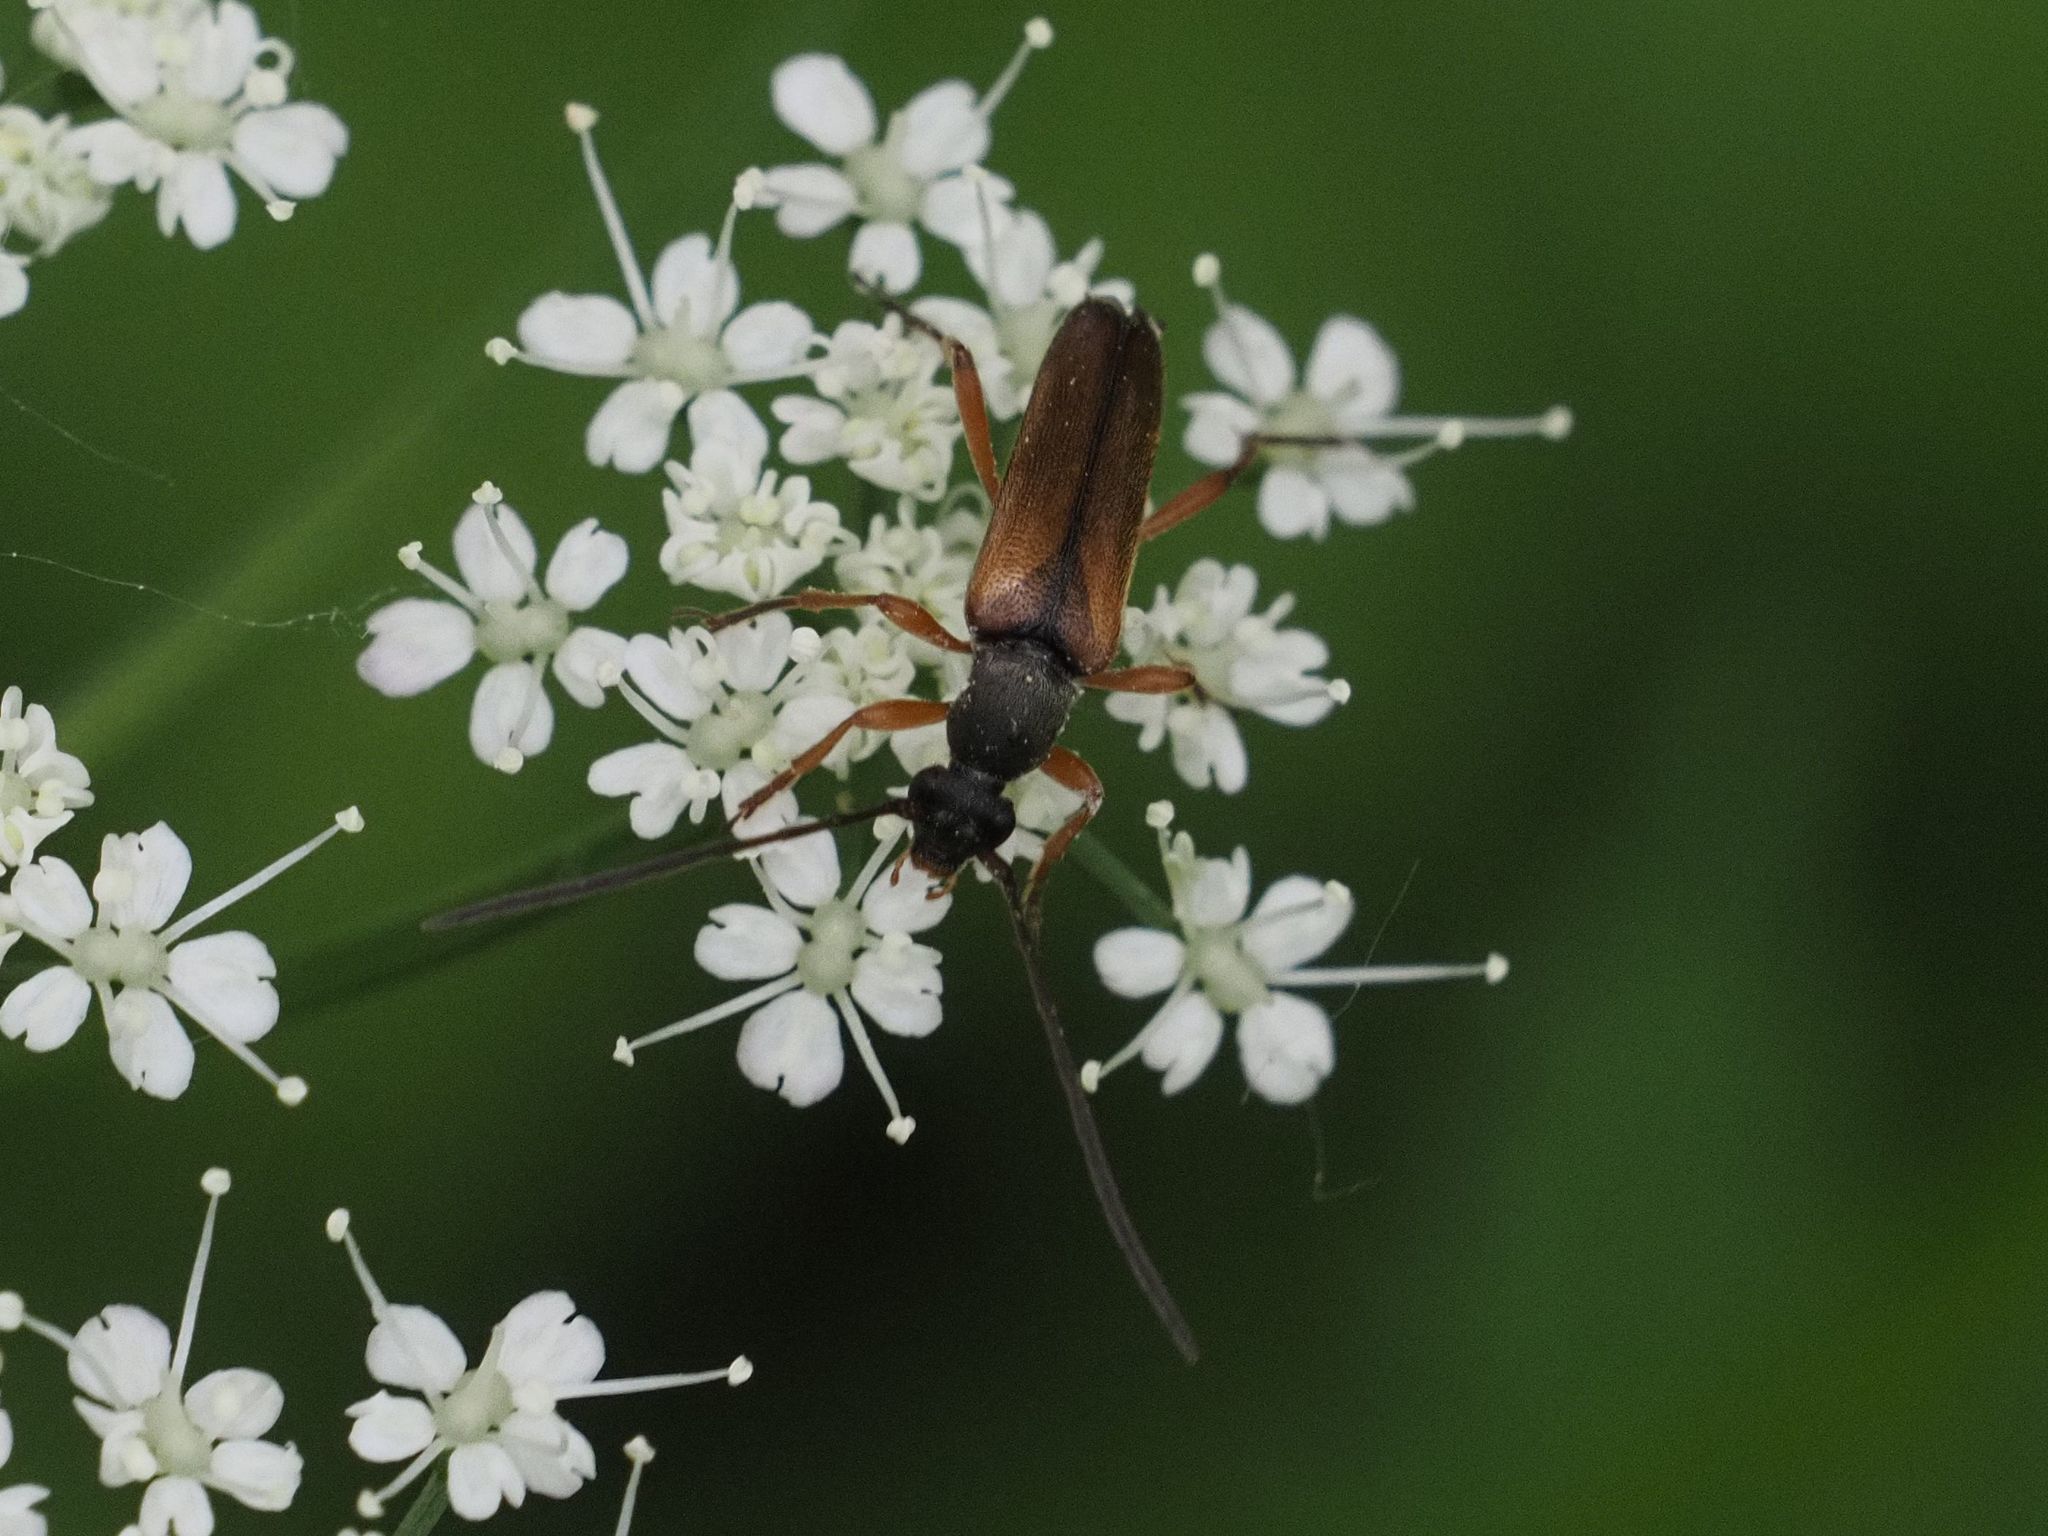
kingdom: Animalia
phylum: Arthropoda
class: Insecta
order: Coleoptera
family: Cerambycidae
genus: Alosterna
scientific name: Alosterna tabacicolor
